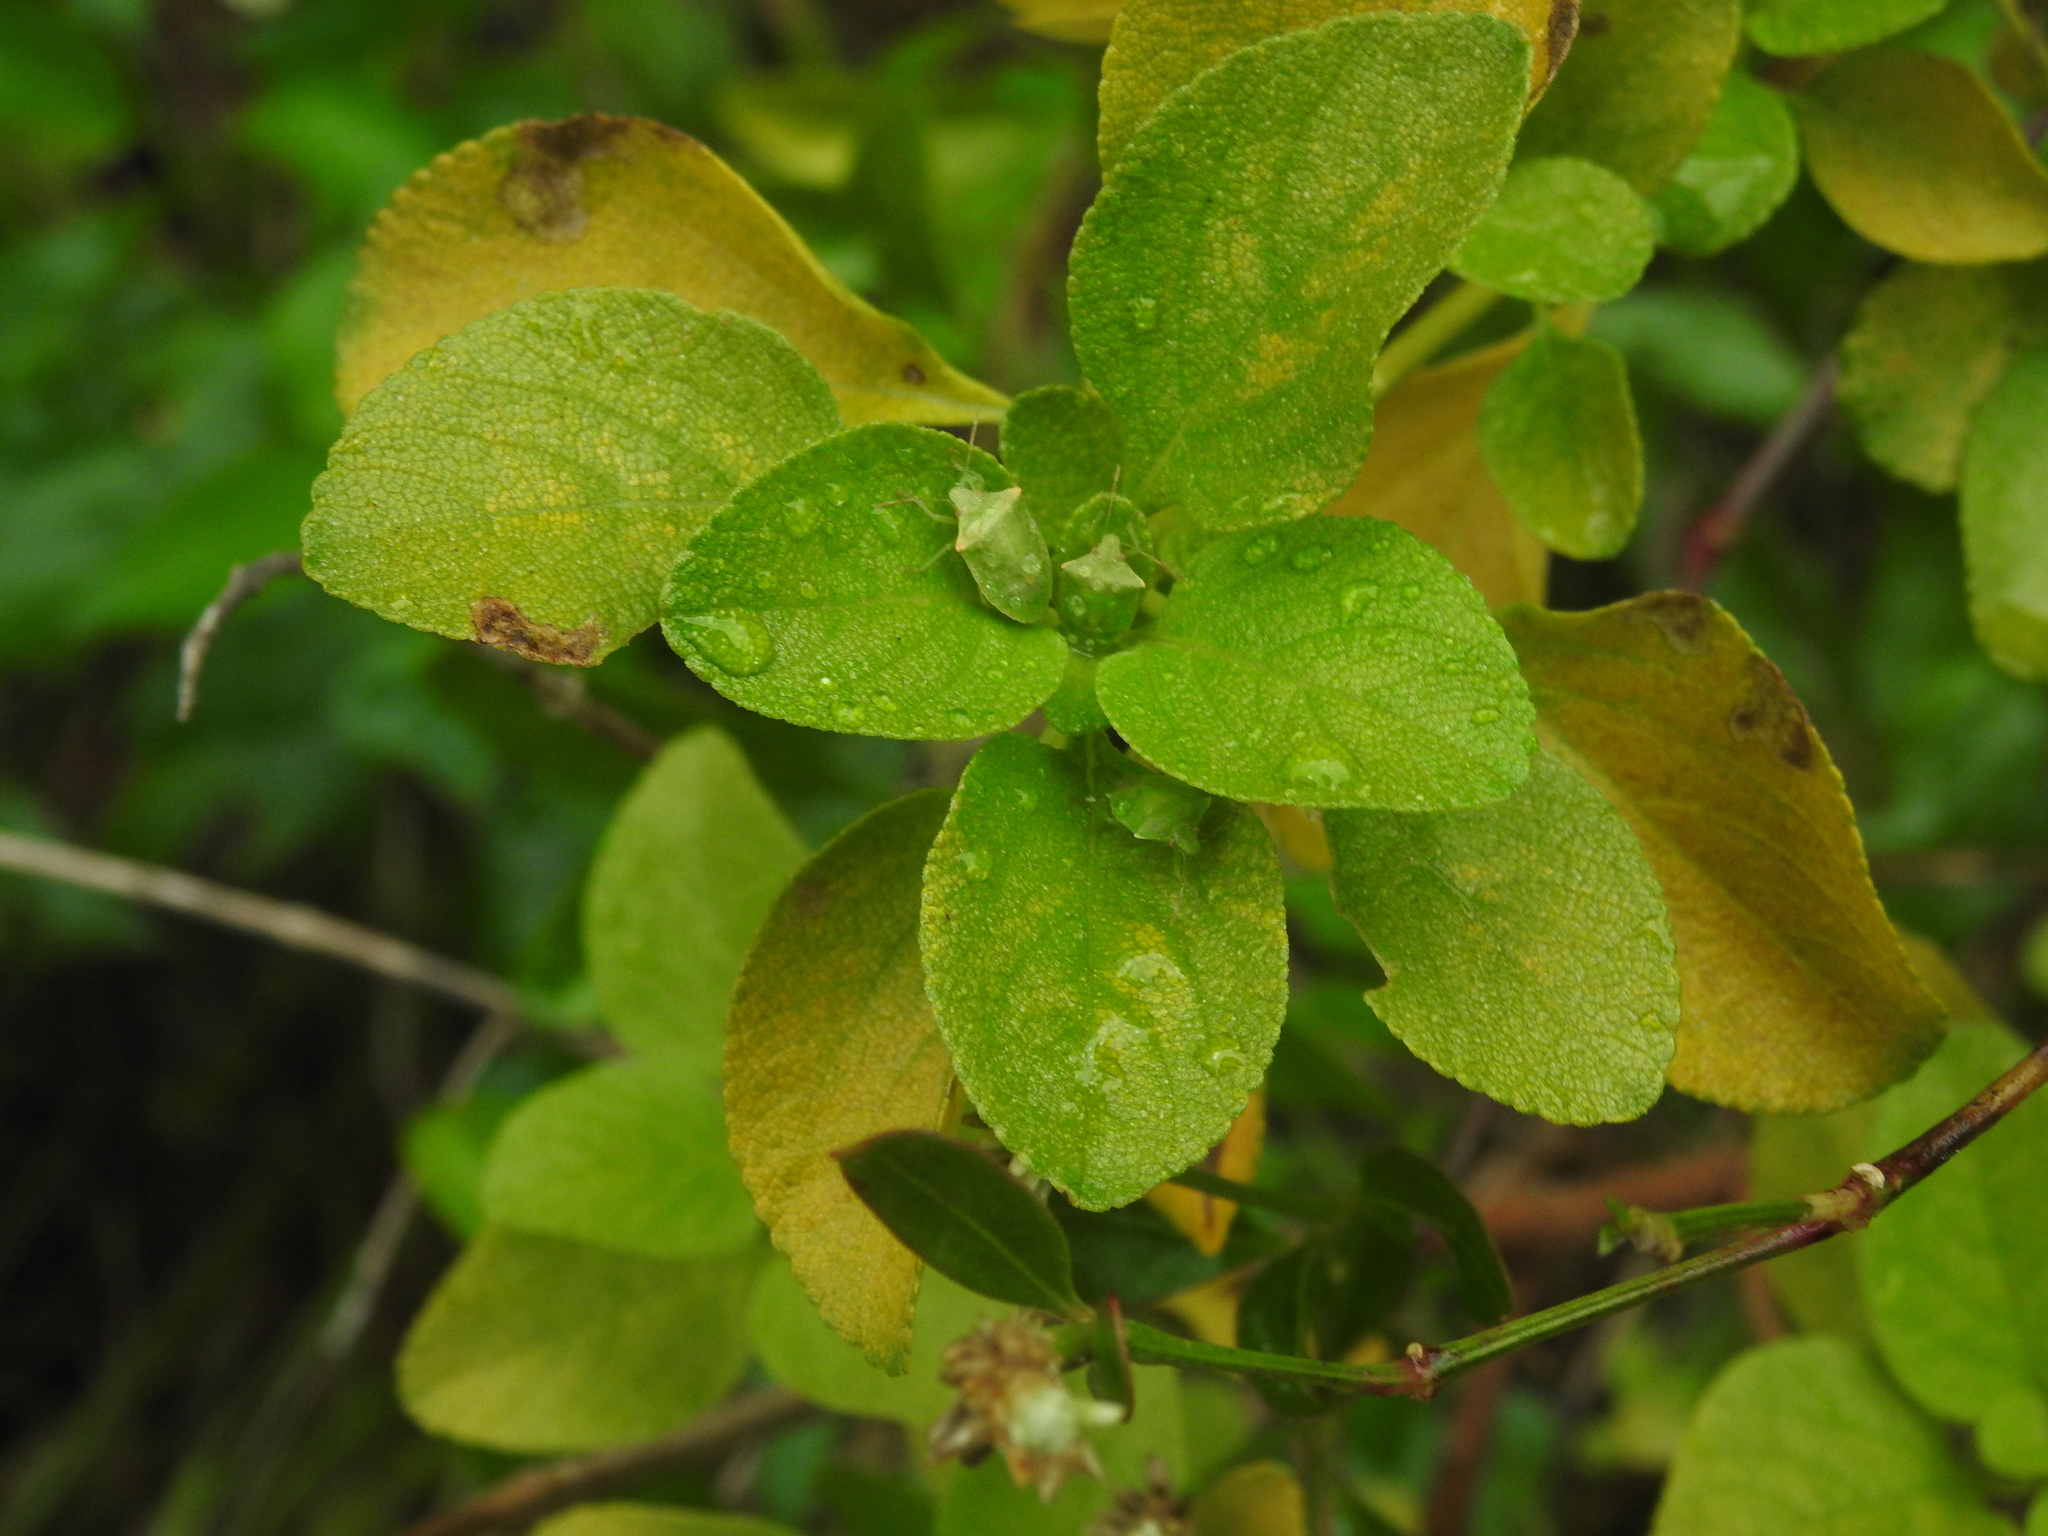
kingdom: Plantae
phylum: Tracheophyta
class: Magnoliopsida
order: Lamiales
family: Verbenaceae
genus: Lantana
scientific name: Lantana involucrata
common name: Black sage
